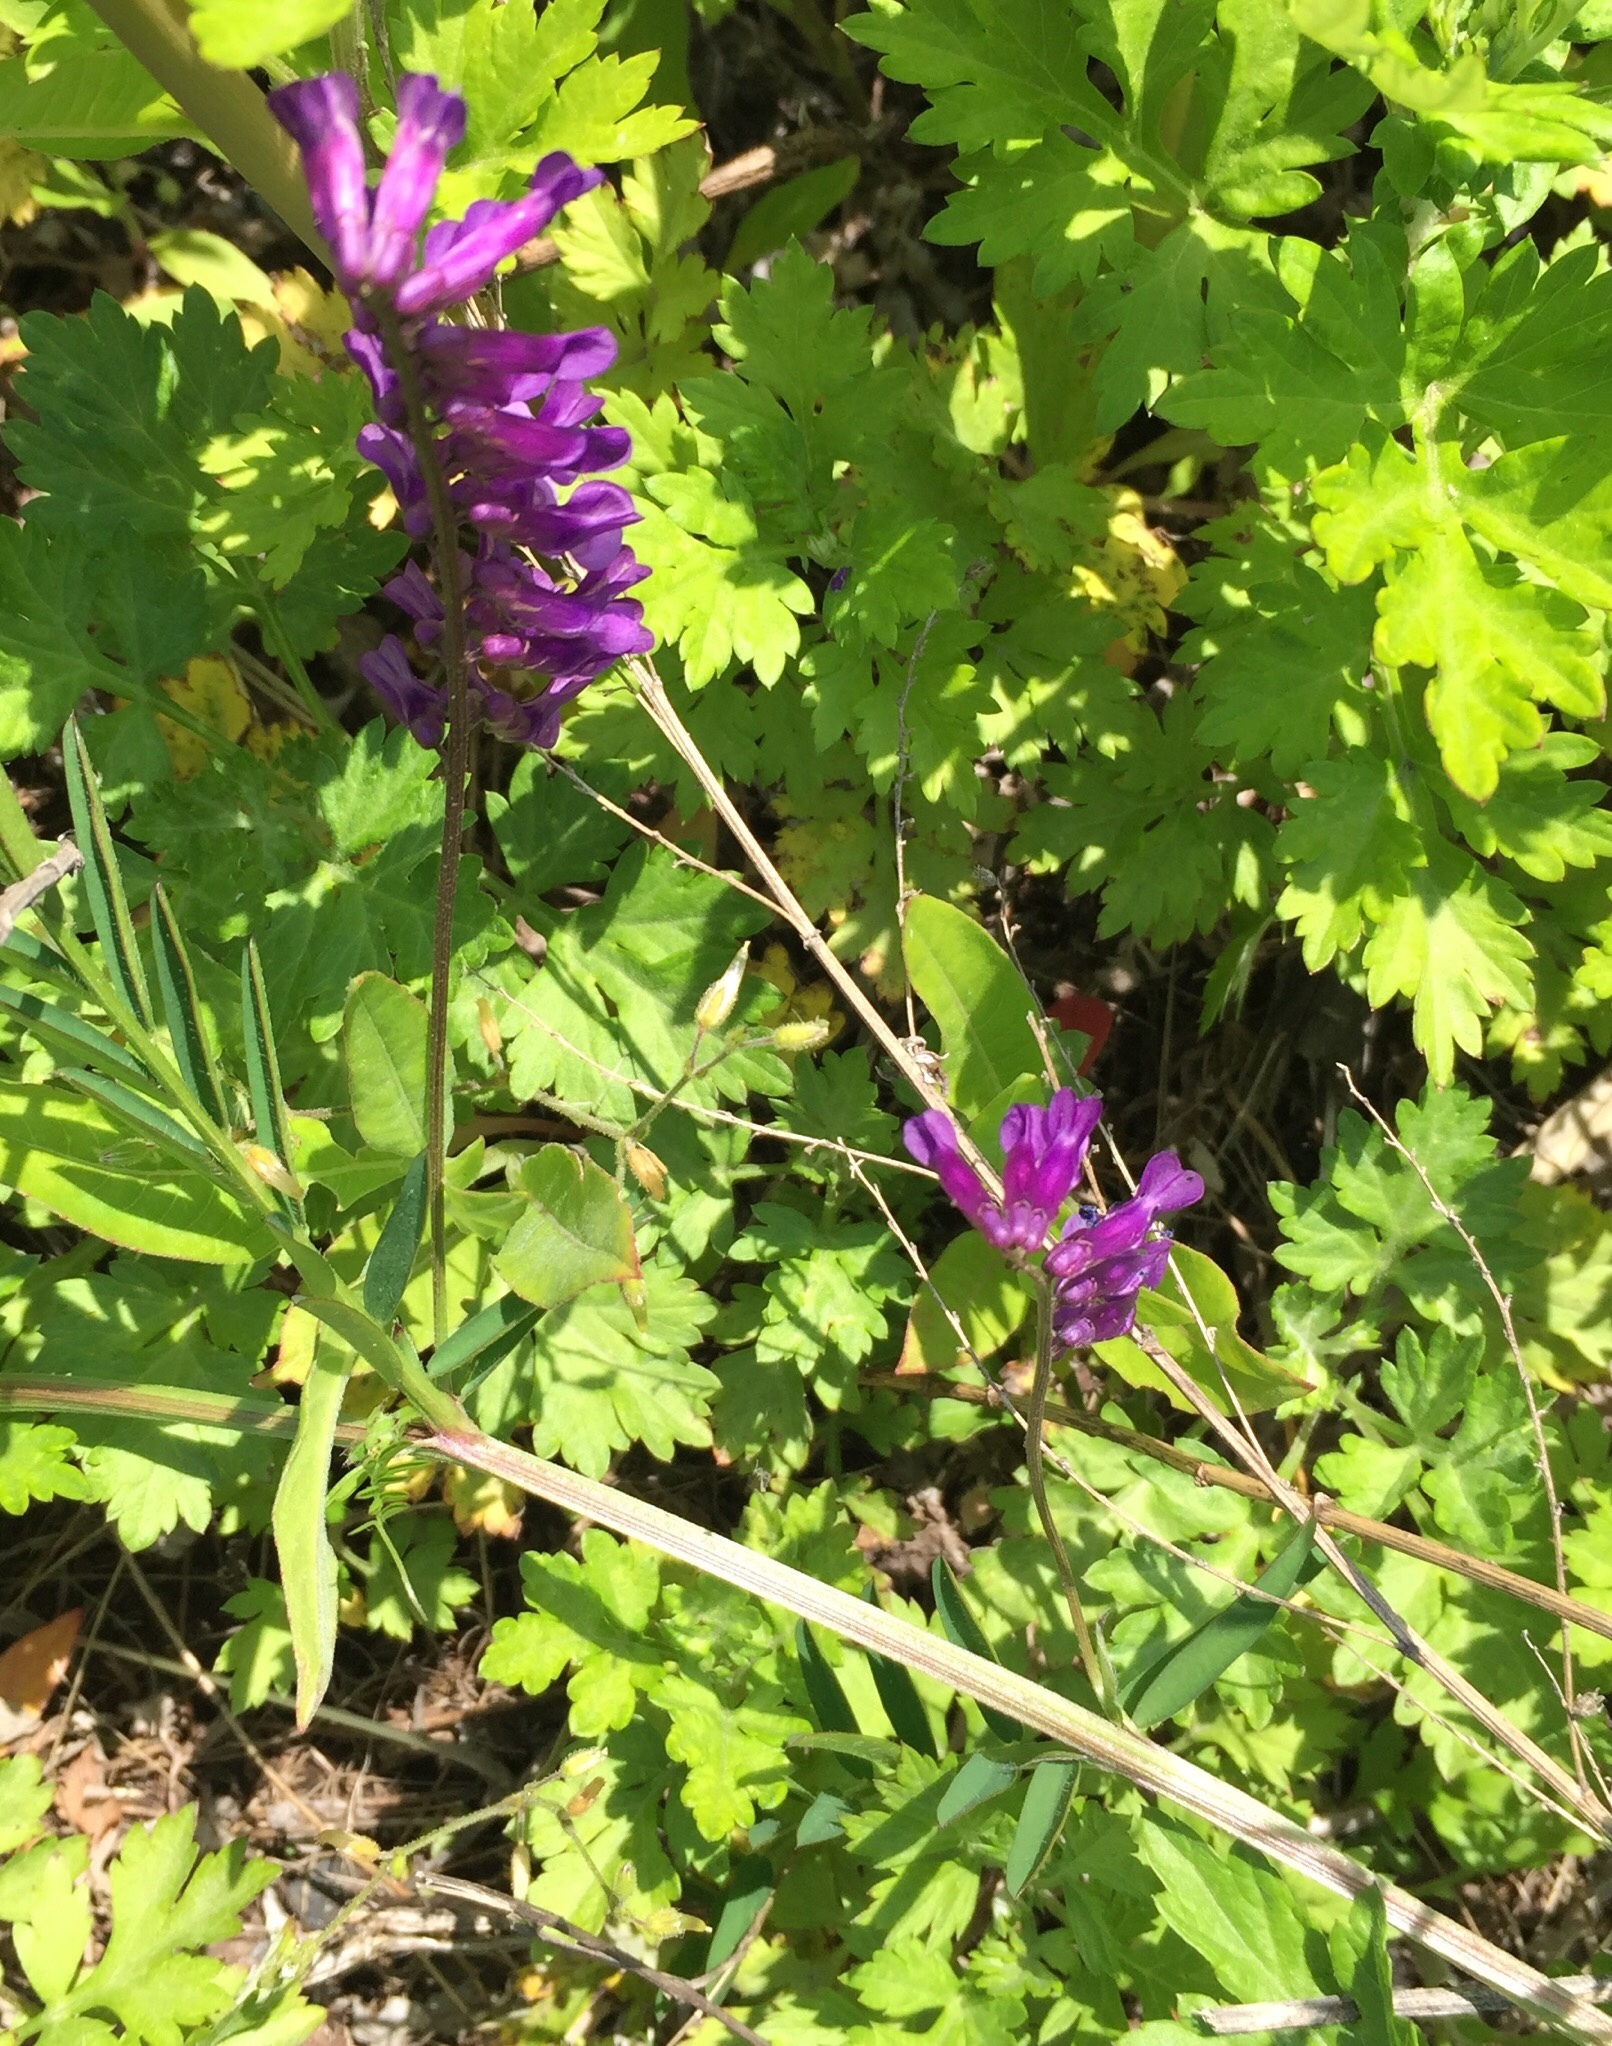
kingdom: Plantae
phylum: Tracheophyta
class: Magnoliopsida
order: Fabales
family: Fabaceae
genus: Vicia
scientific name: Vicia villosa
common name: Fodder vetch
